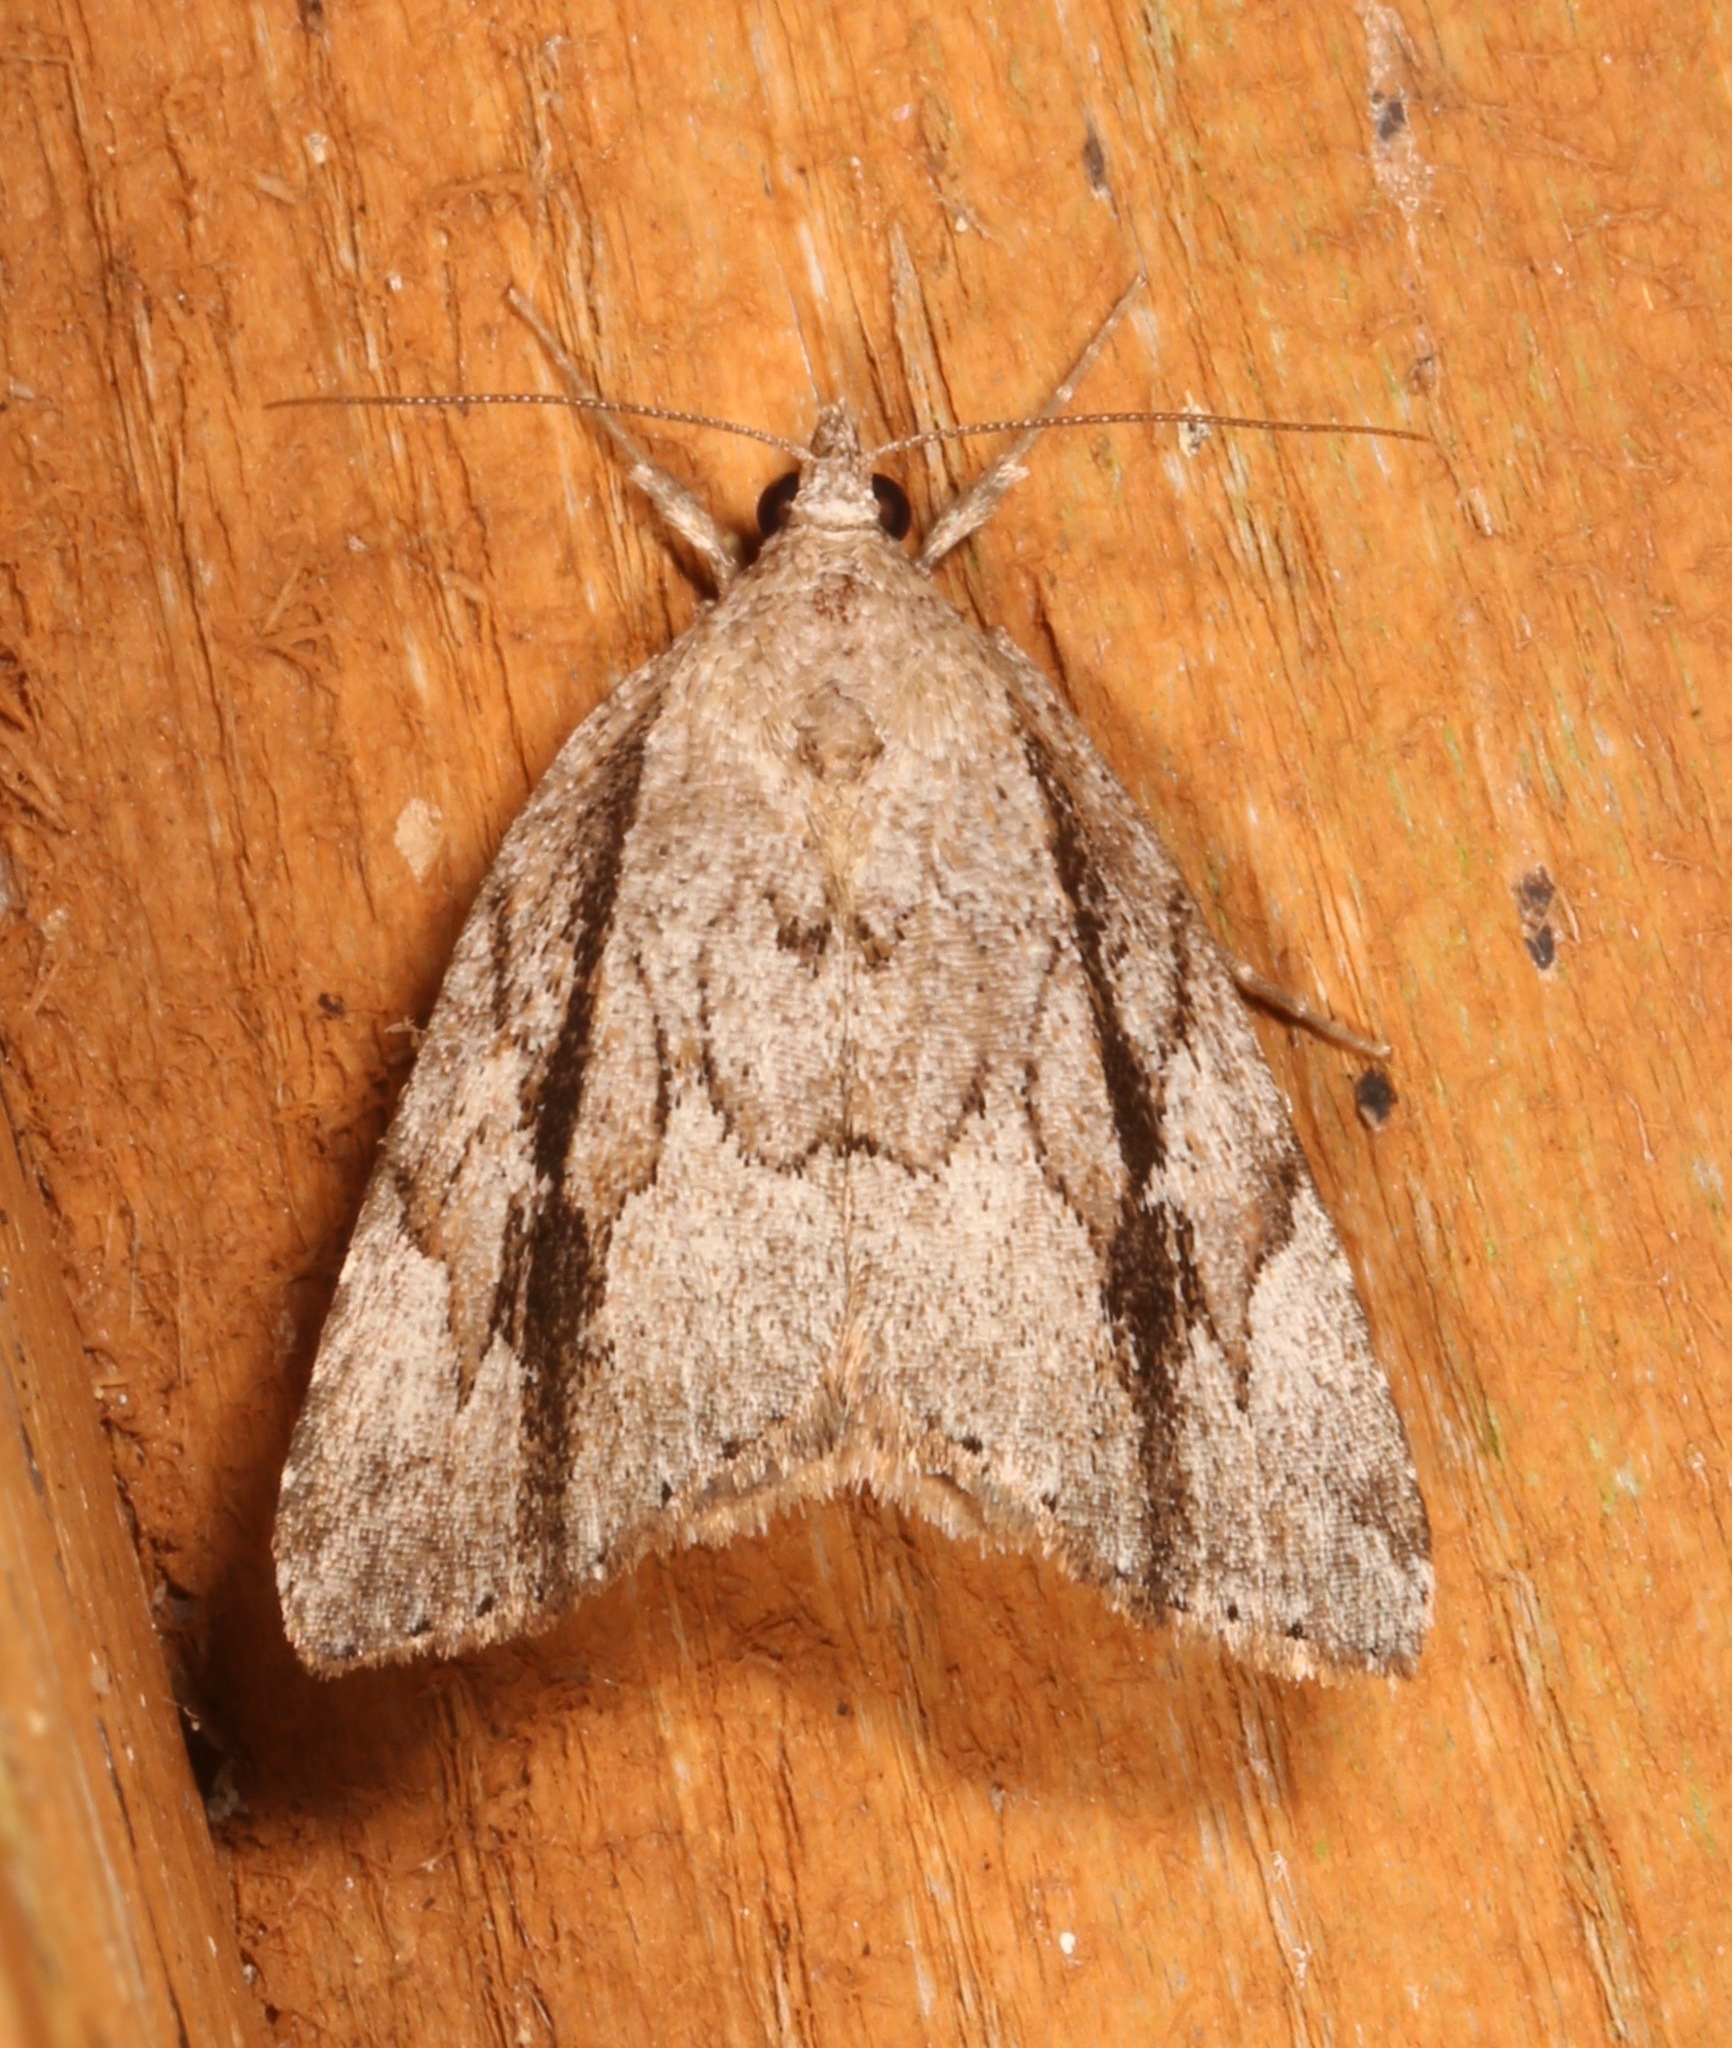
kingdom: Animalia
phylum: Arthropoda
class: Insecta
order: Lepidoptera
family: Erebidae
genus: Cutina
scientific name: Cutina albopunctella
